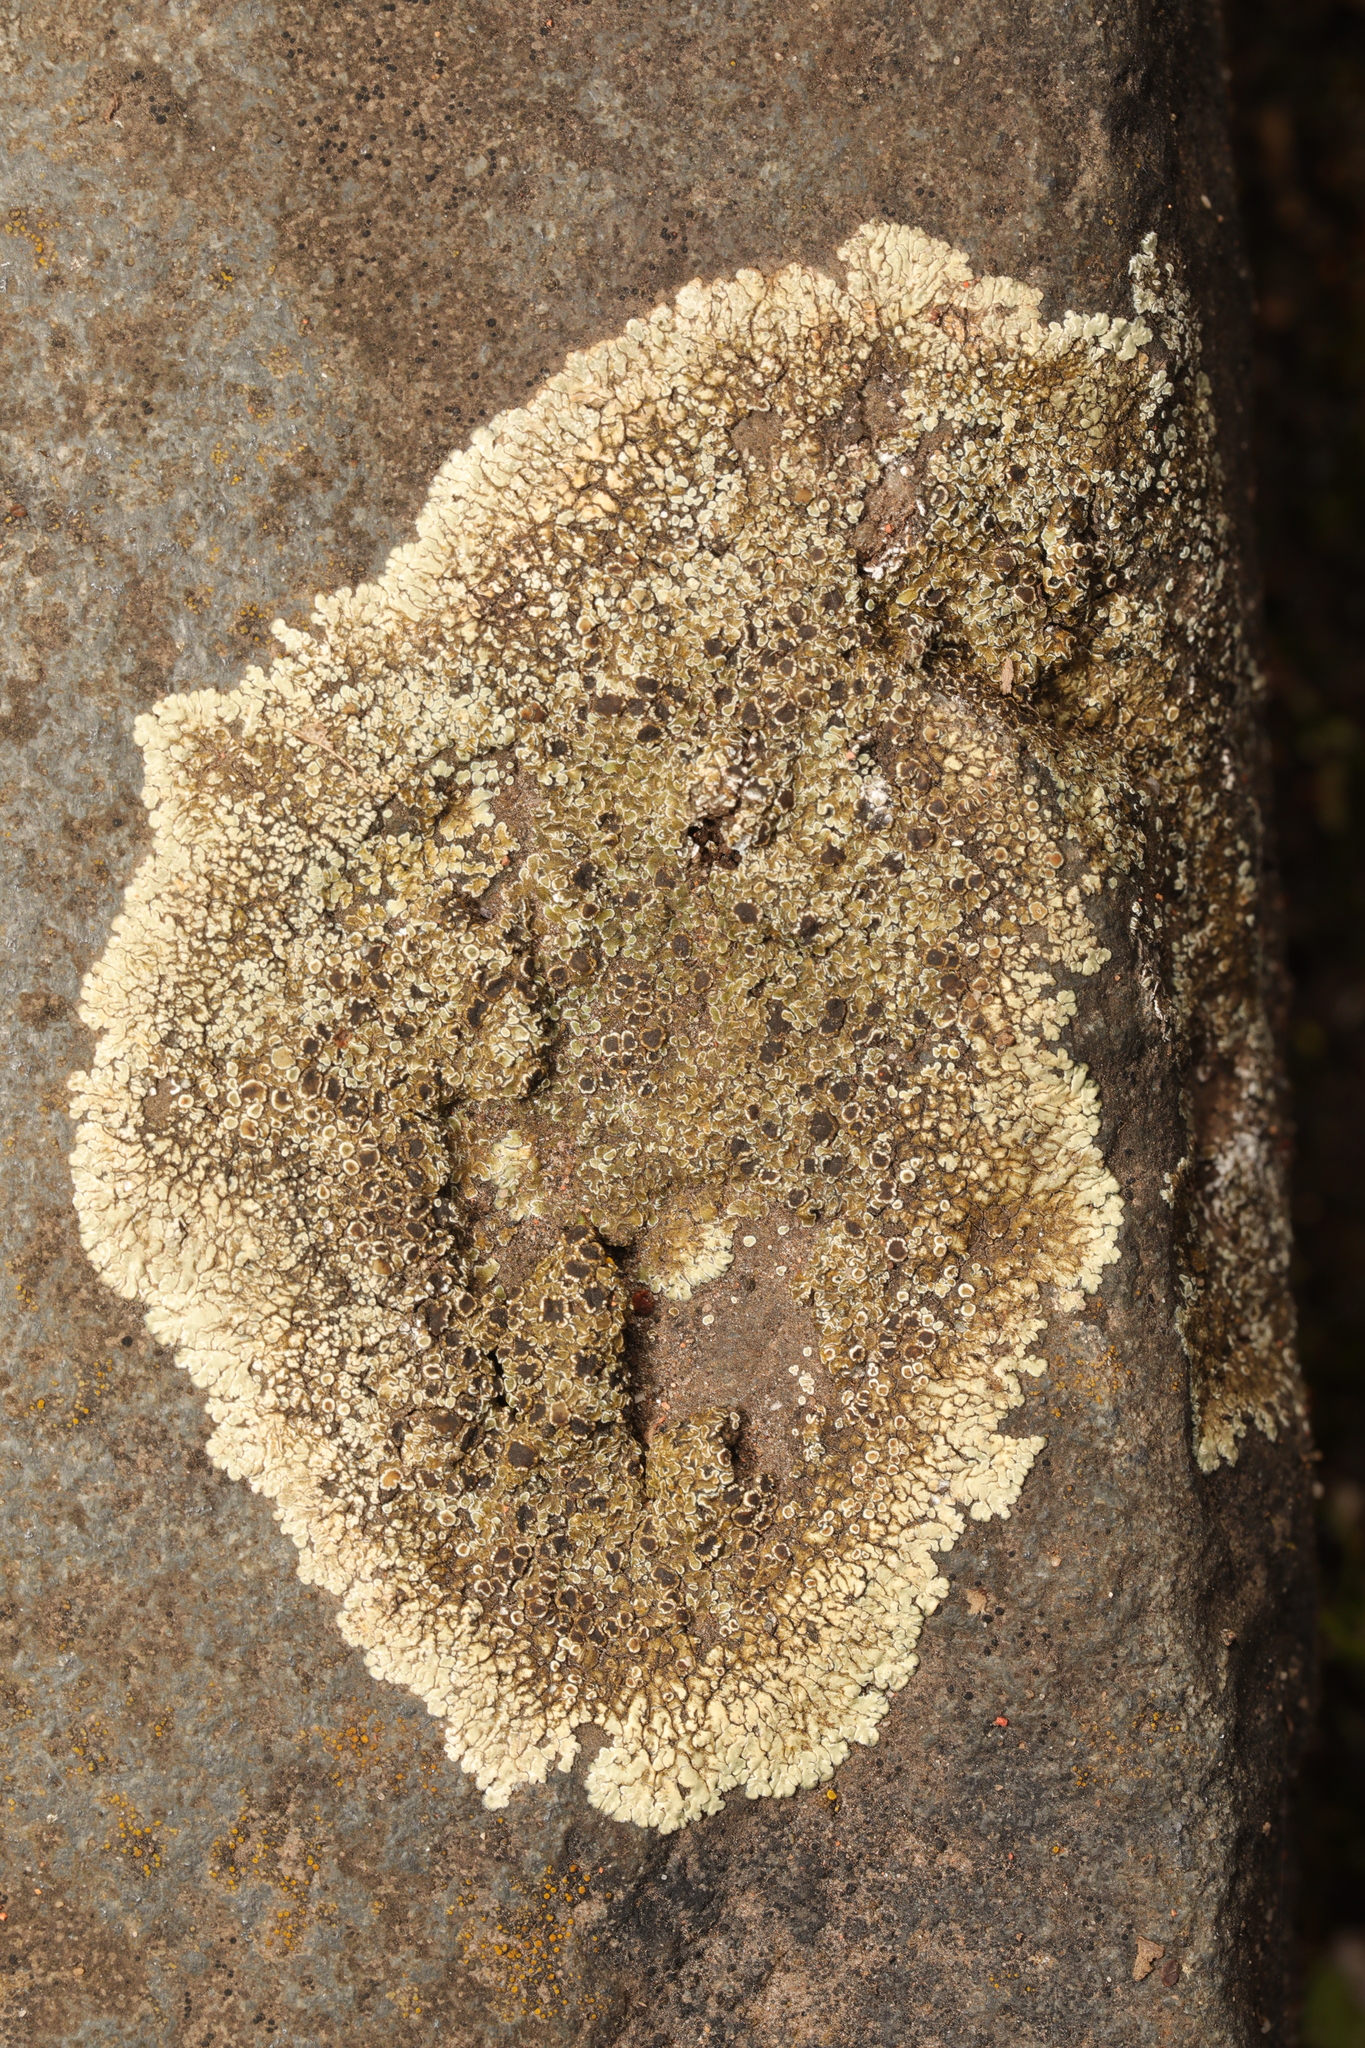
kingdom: Fungi
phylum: Ascomycota
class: Lecanoromycetes
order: Lecanorales
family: Lecanoraceae
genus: Protoparmeliopsis
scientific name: Protoparmeliopsis muralis
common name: Stonewall rim lichen
